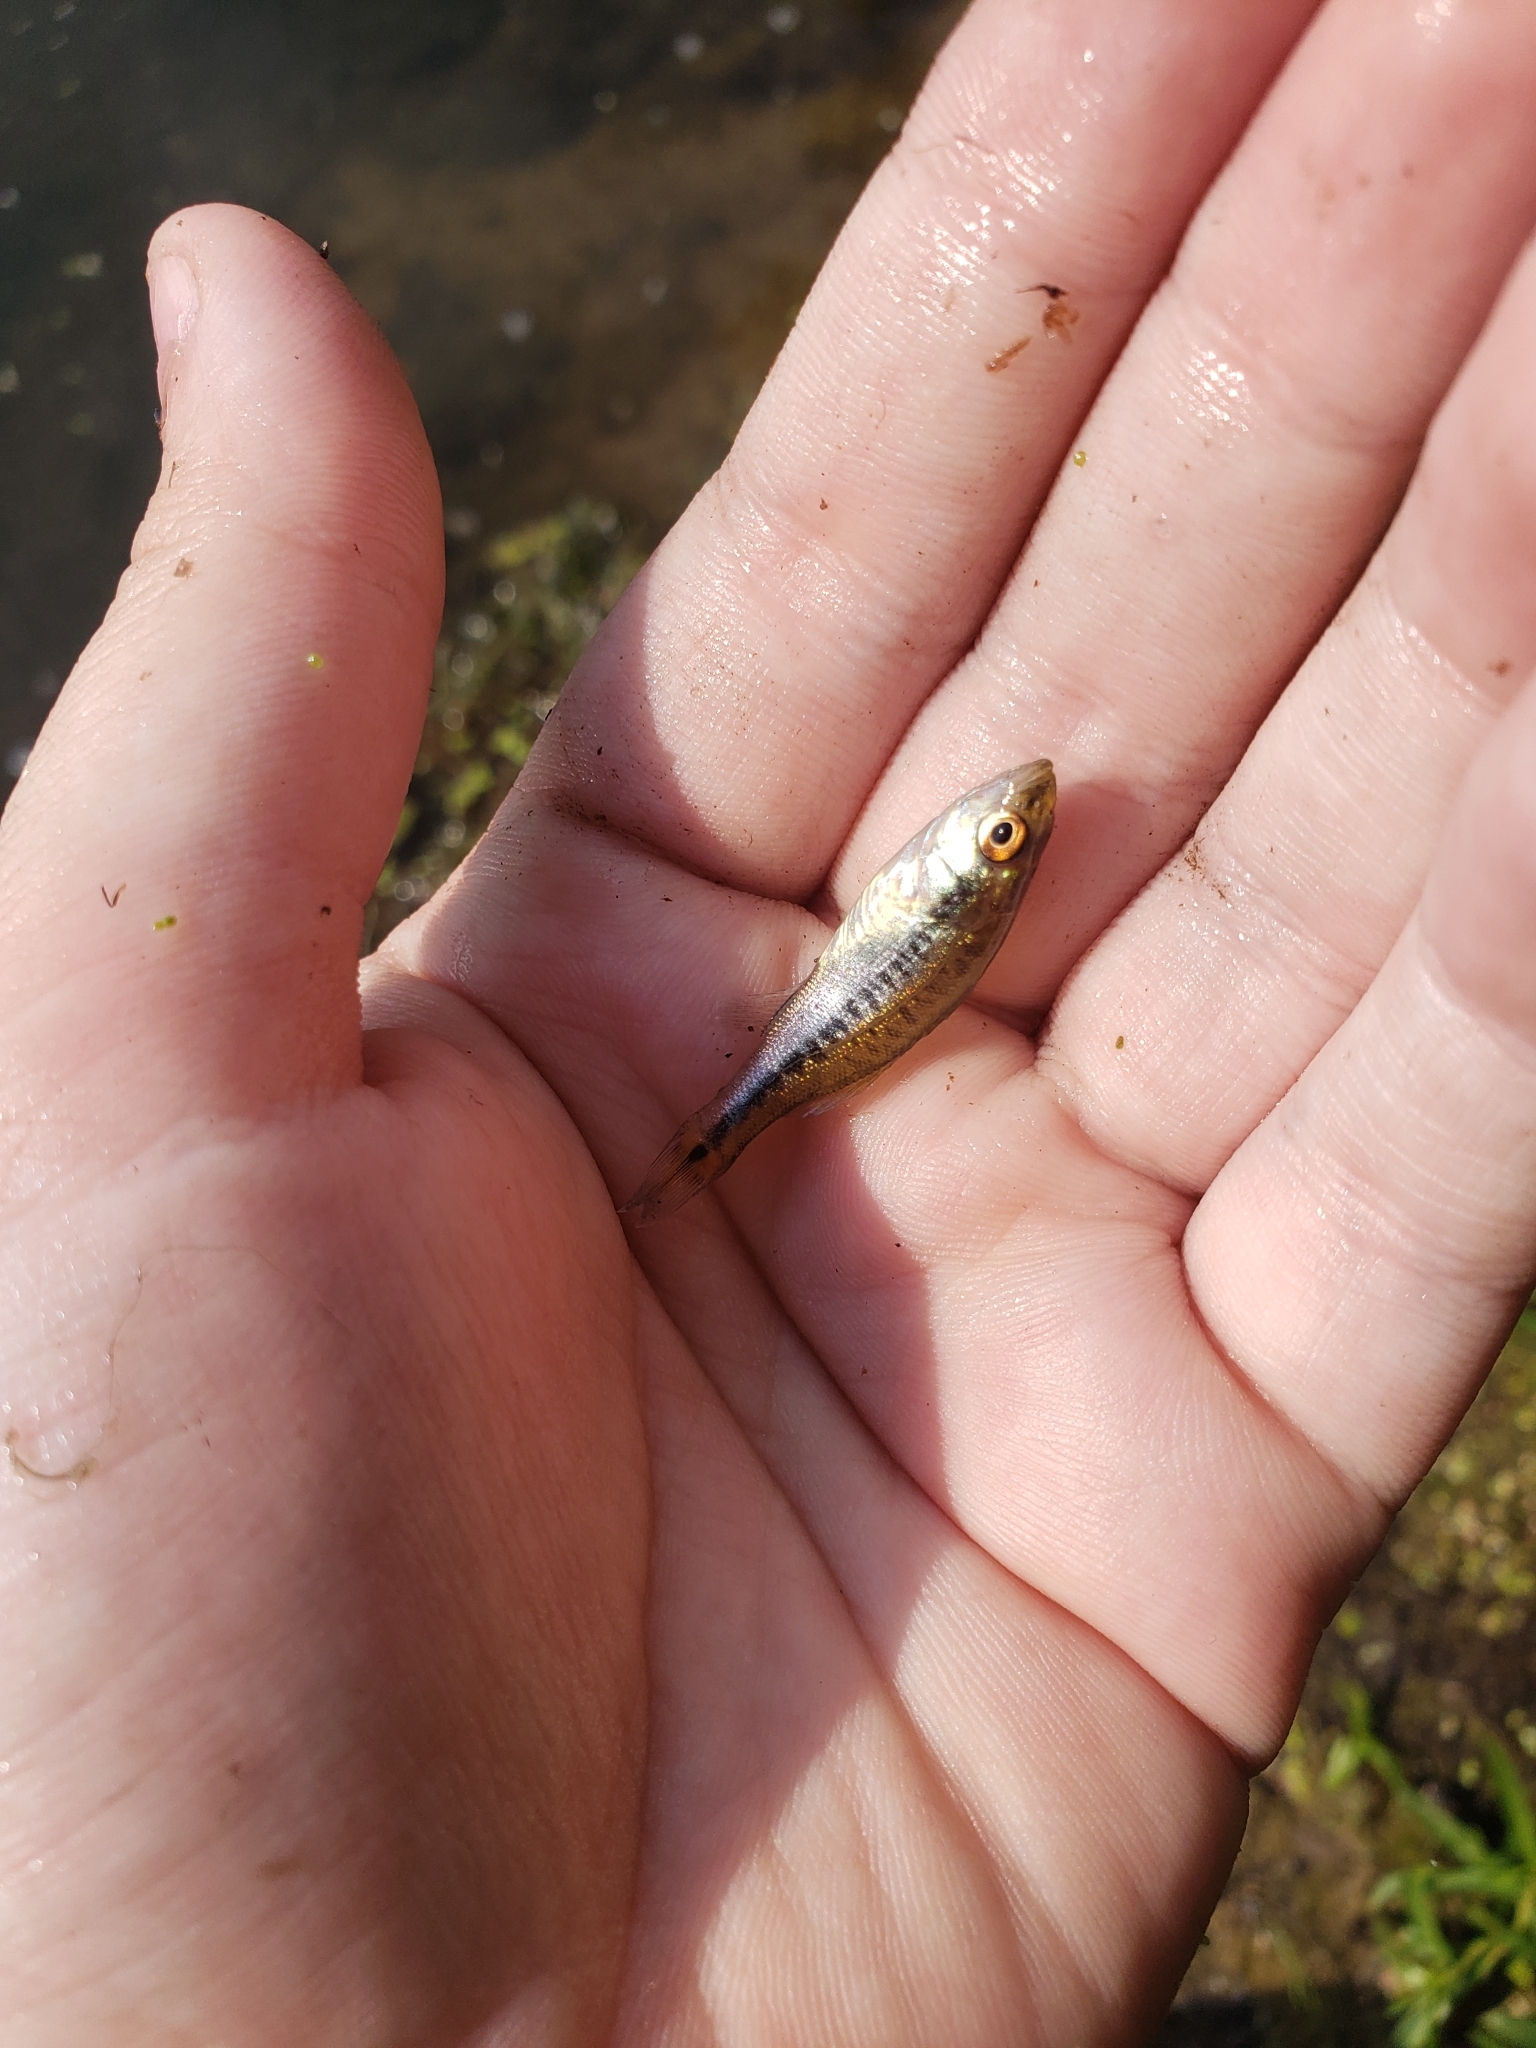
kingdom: Animalia
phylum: Chordata
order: Perciformes
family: Centrarchidae
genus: Micropterus
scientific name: Micropterus
